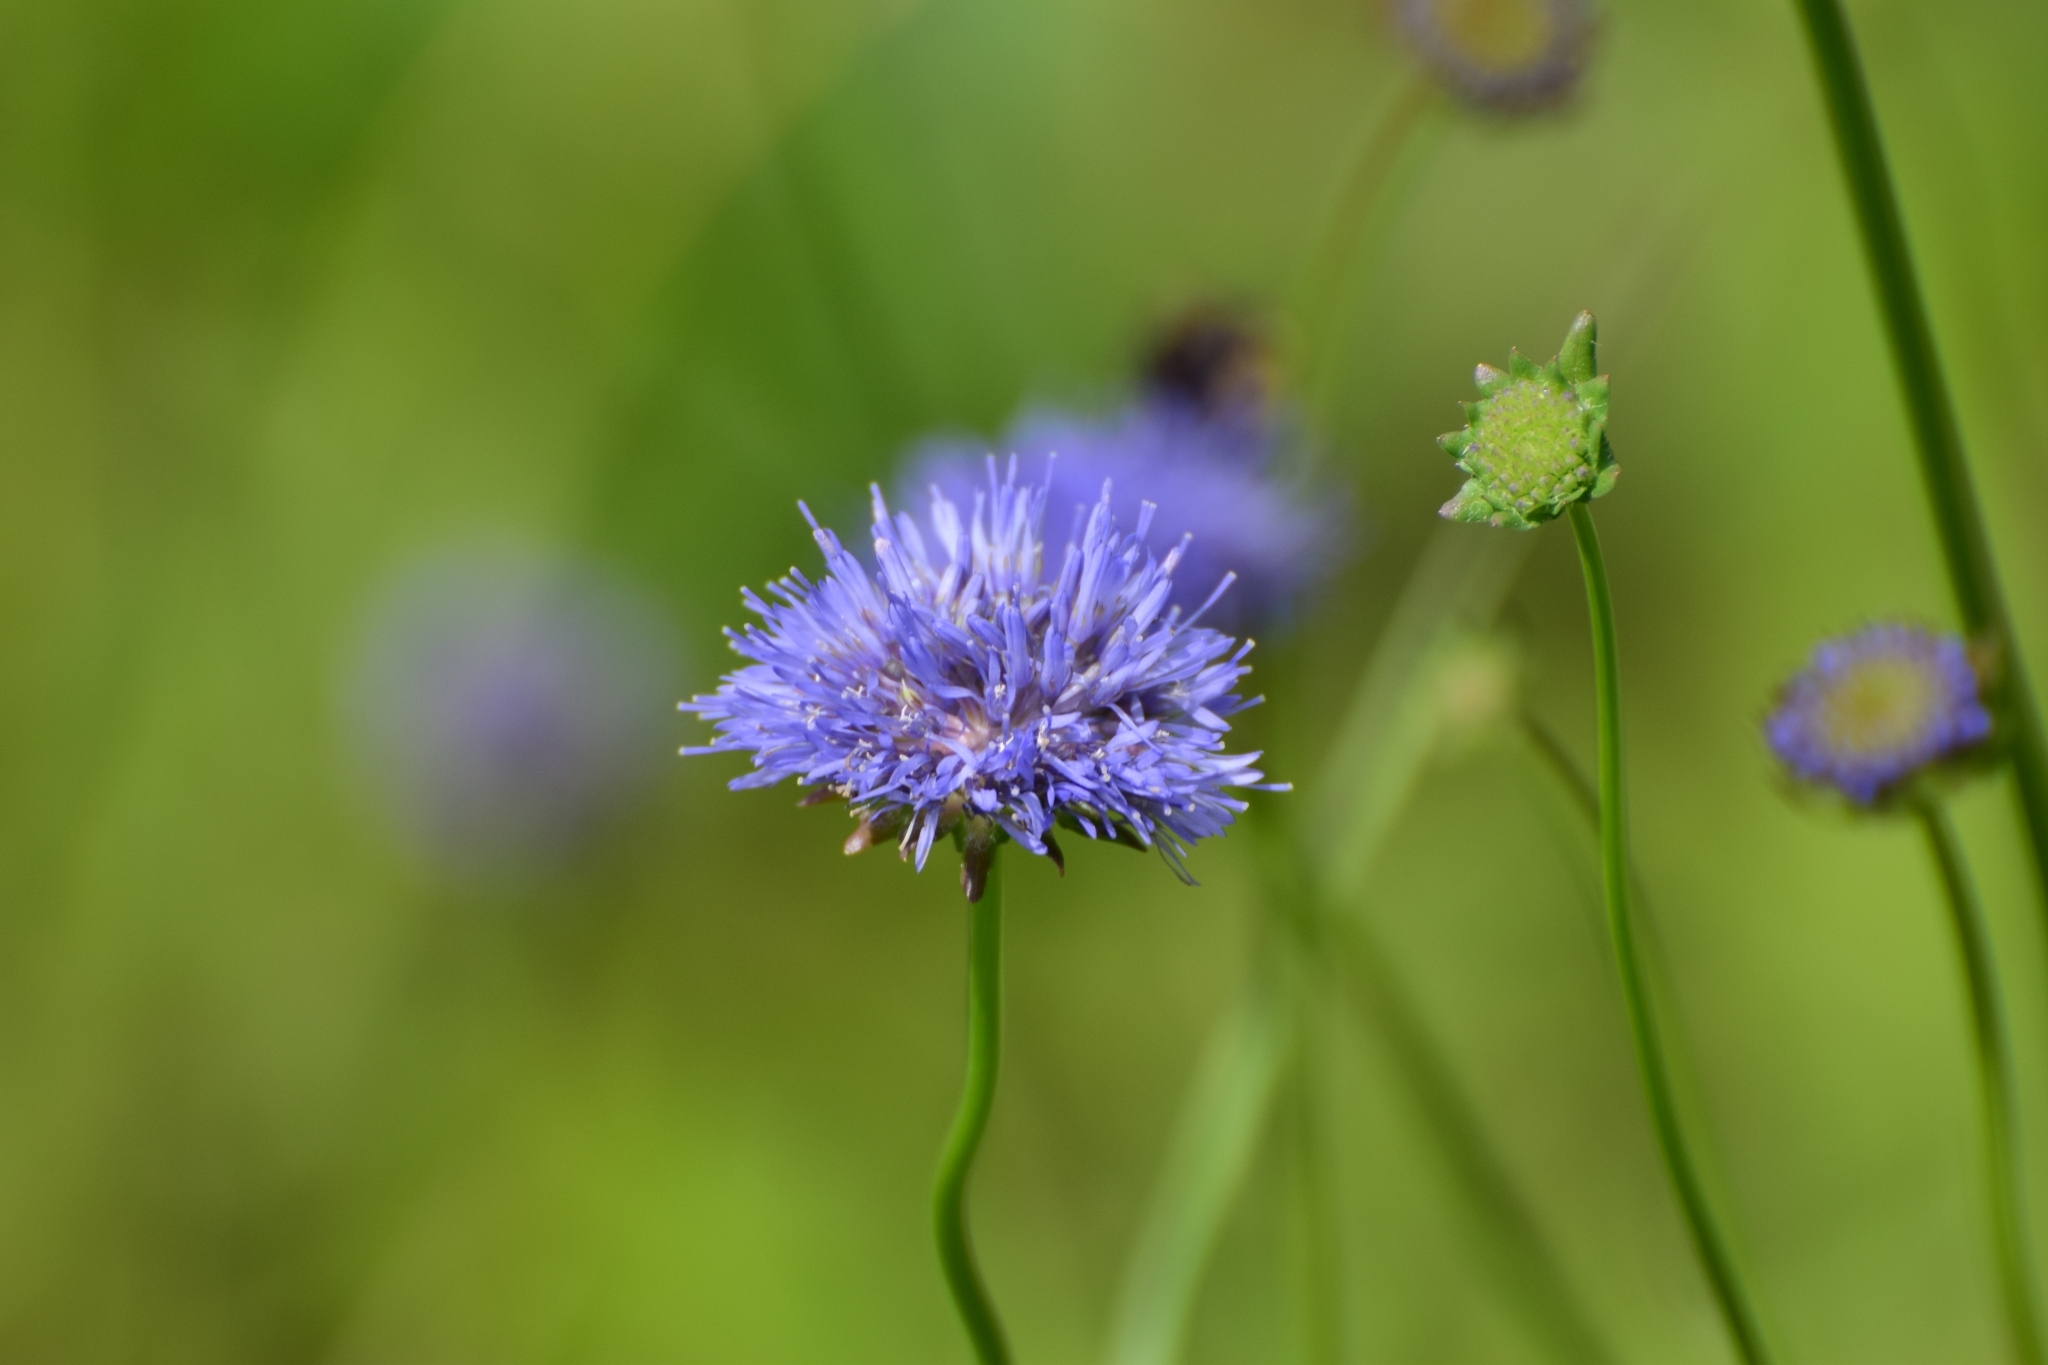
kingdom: Plantae
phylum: Tracheophyta
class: Magnoliopsida
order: Asterales
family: Campanulaceae
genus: Jasione
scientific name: Jasione montana
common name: Sheep's-bit
